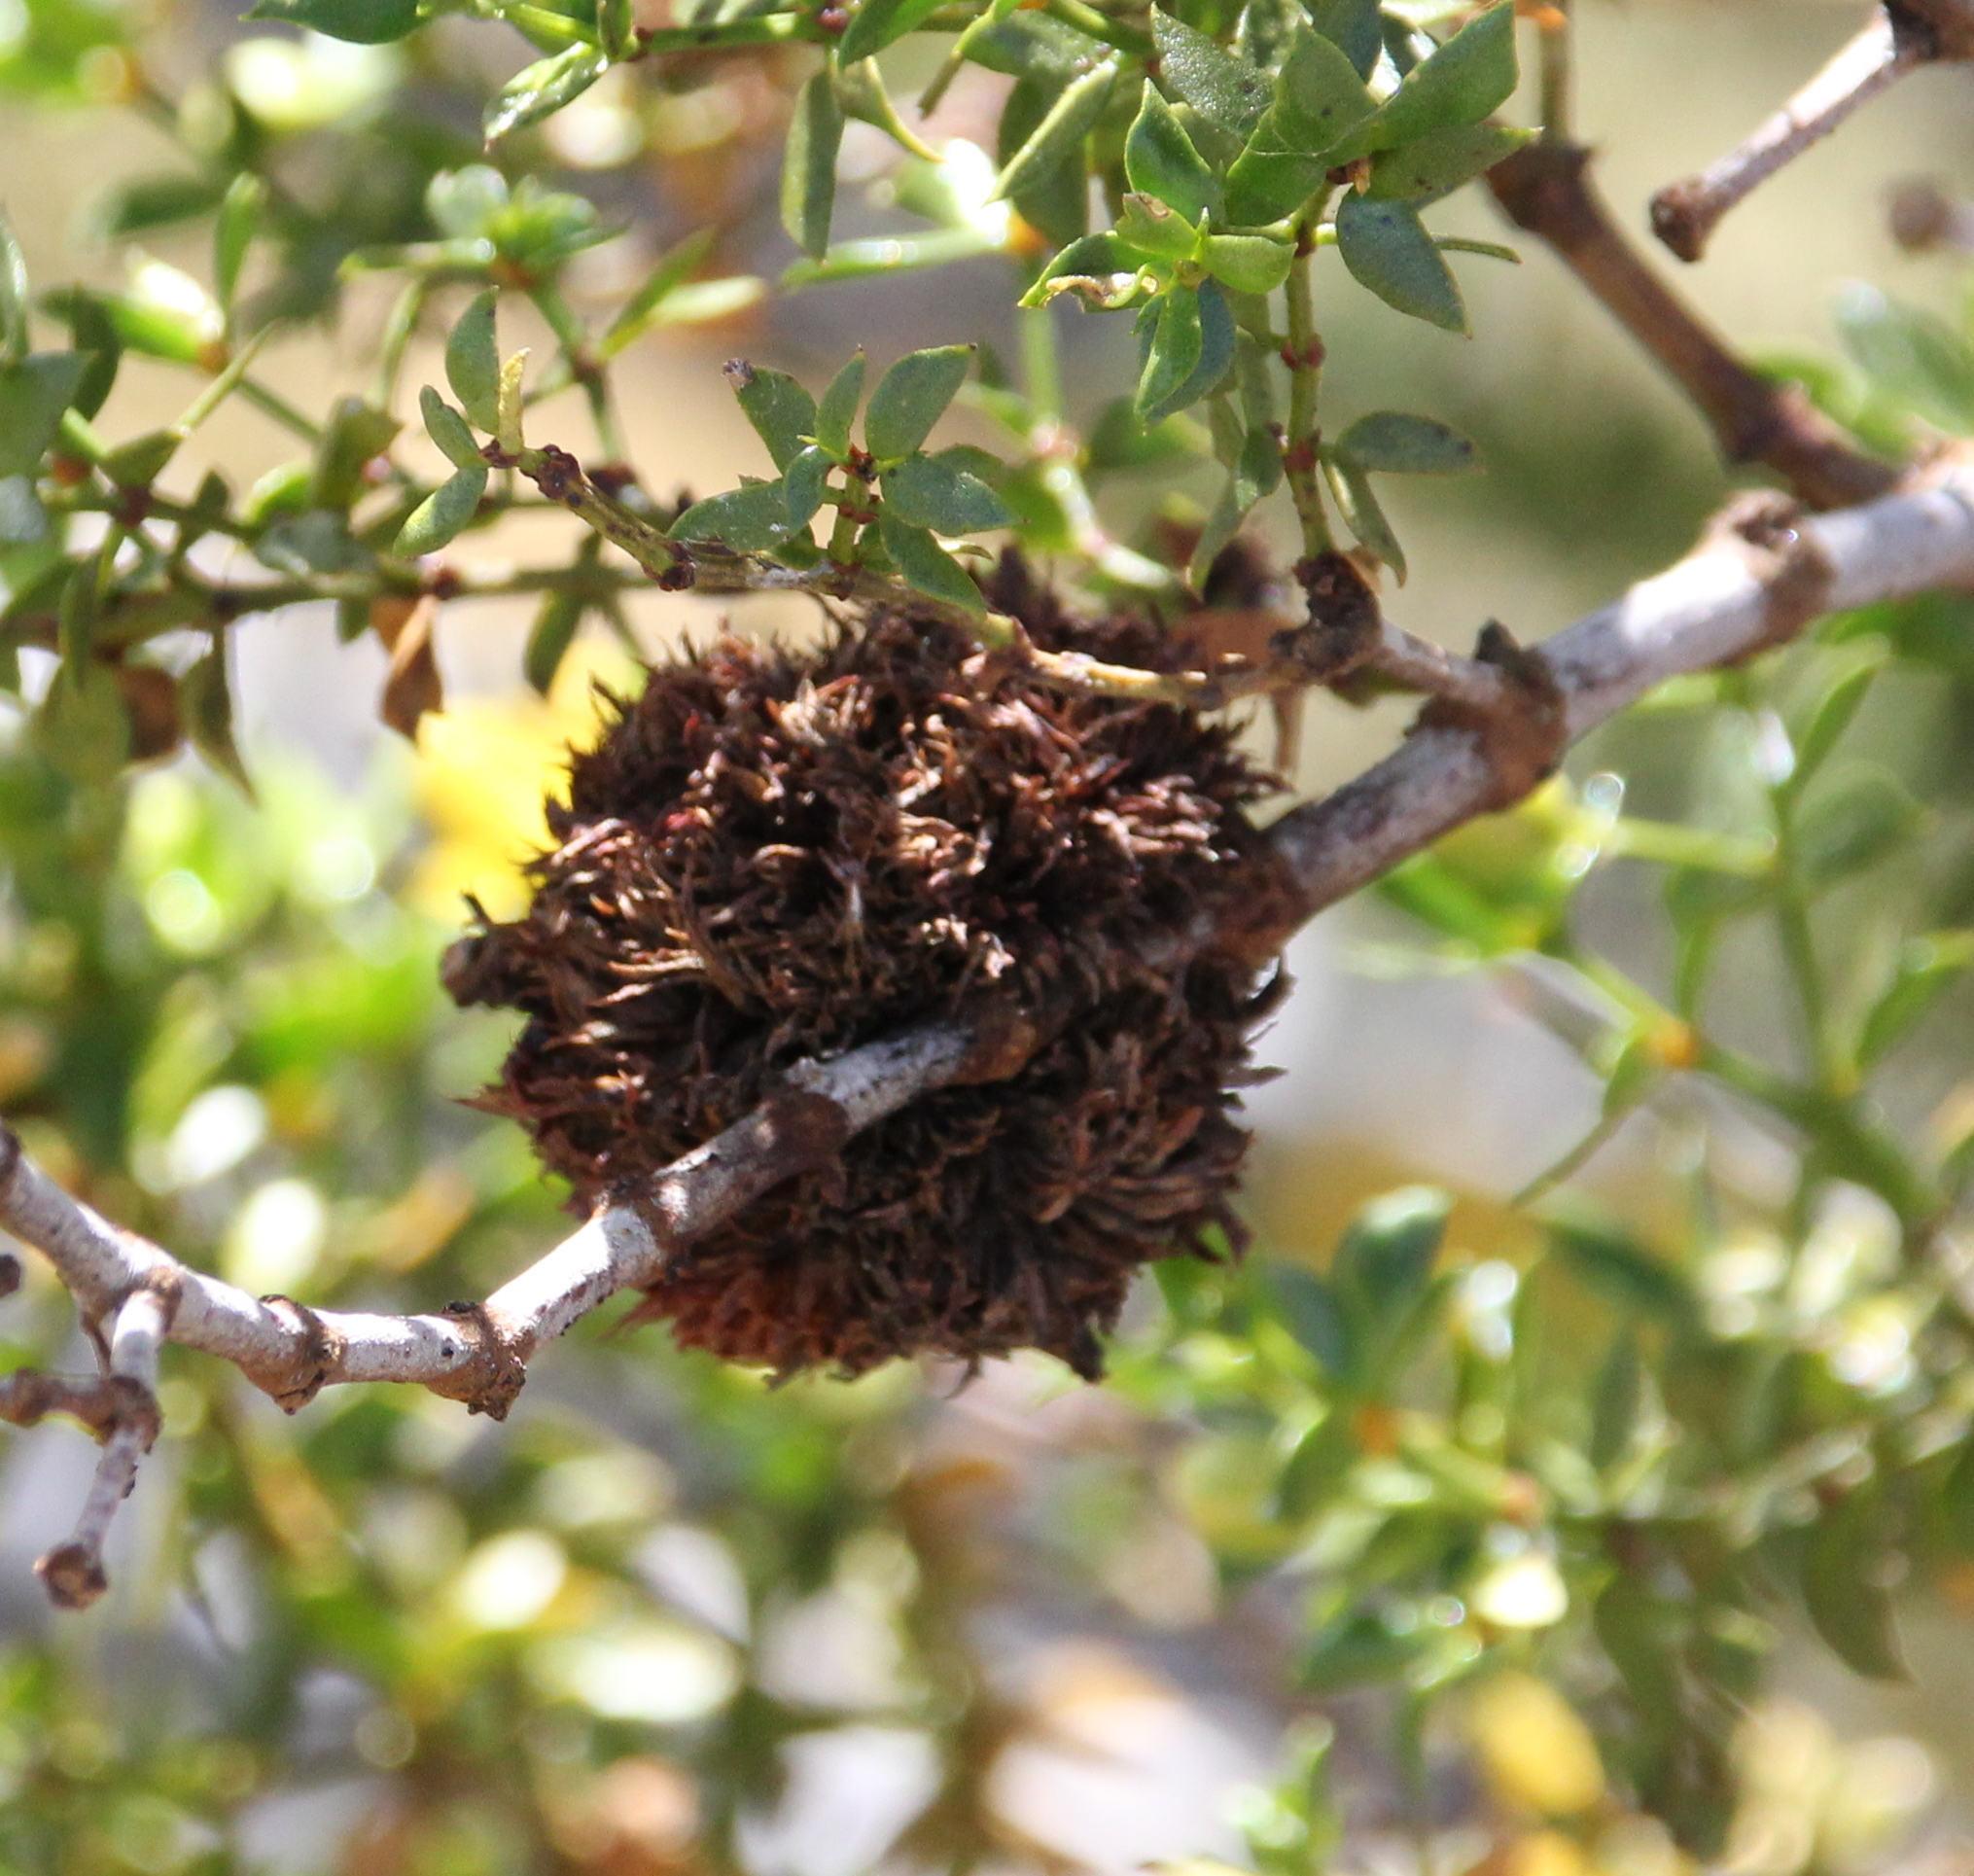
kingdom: Animalia
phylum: Arthropoda
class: Insecta
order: Diptera
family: Cecidomyiidae
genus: Asphondylia
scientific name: Asphondylia auripila
